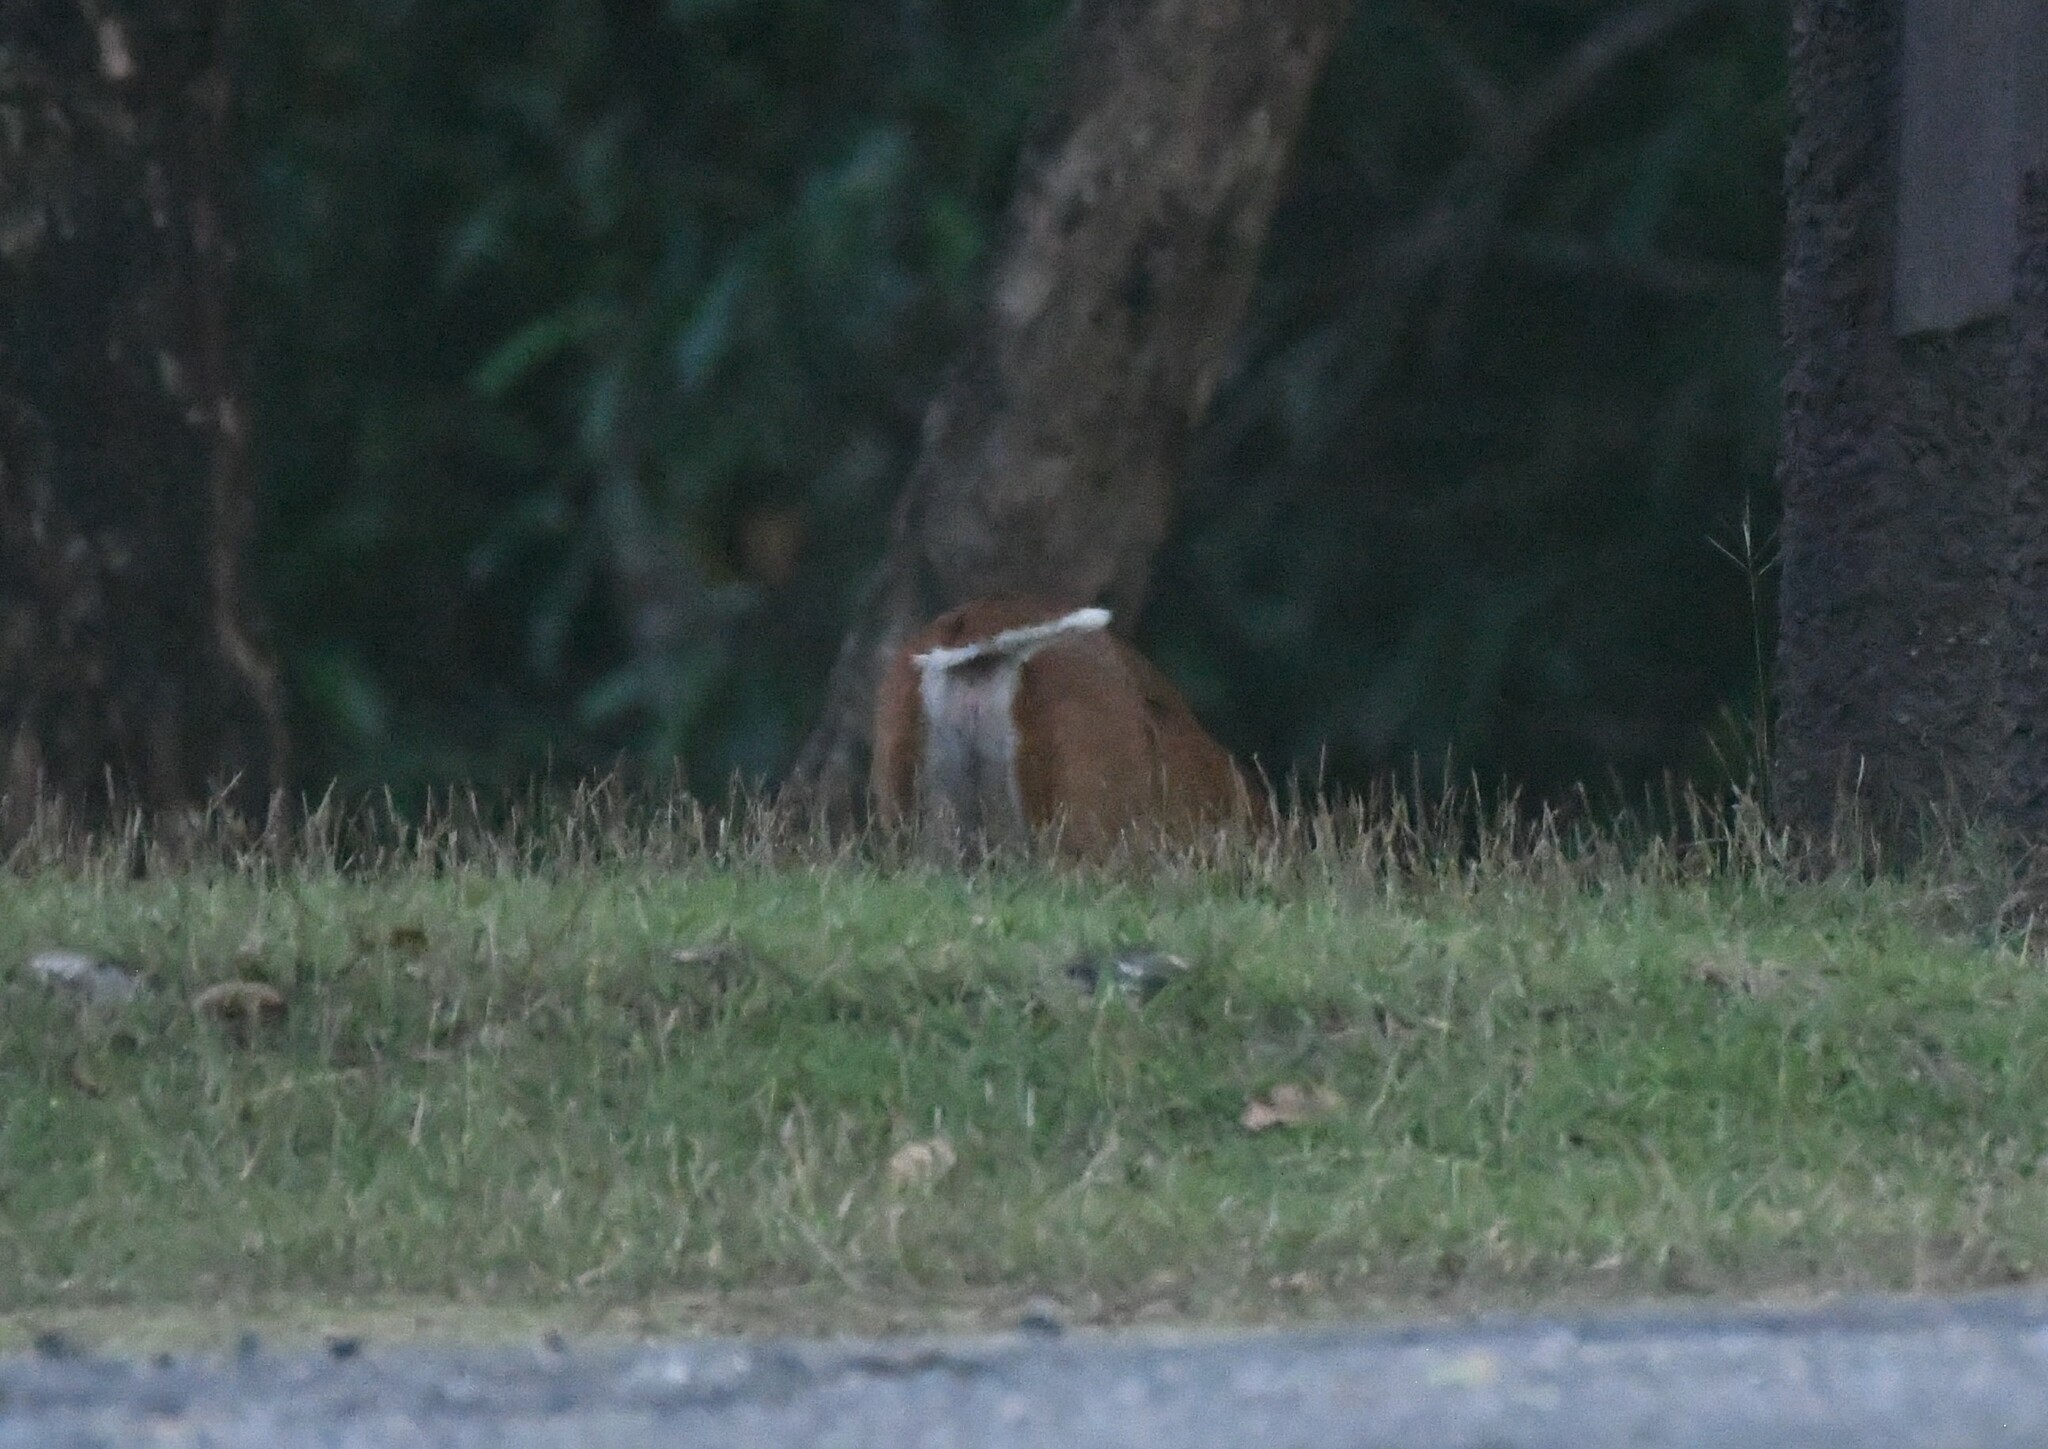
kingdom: Animalia
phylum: Chordata
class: Mammalia
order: Artiodactyla
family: Cervidae
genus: Muntiacus
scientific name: Muntiacus muntjak
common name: Indian muntjac
